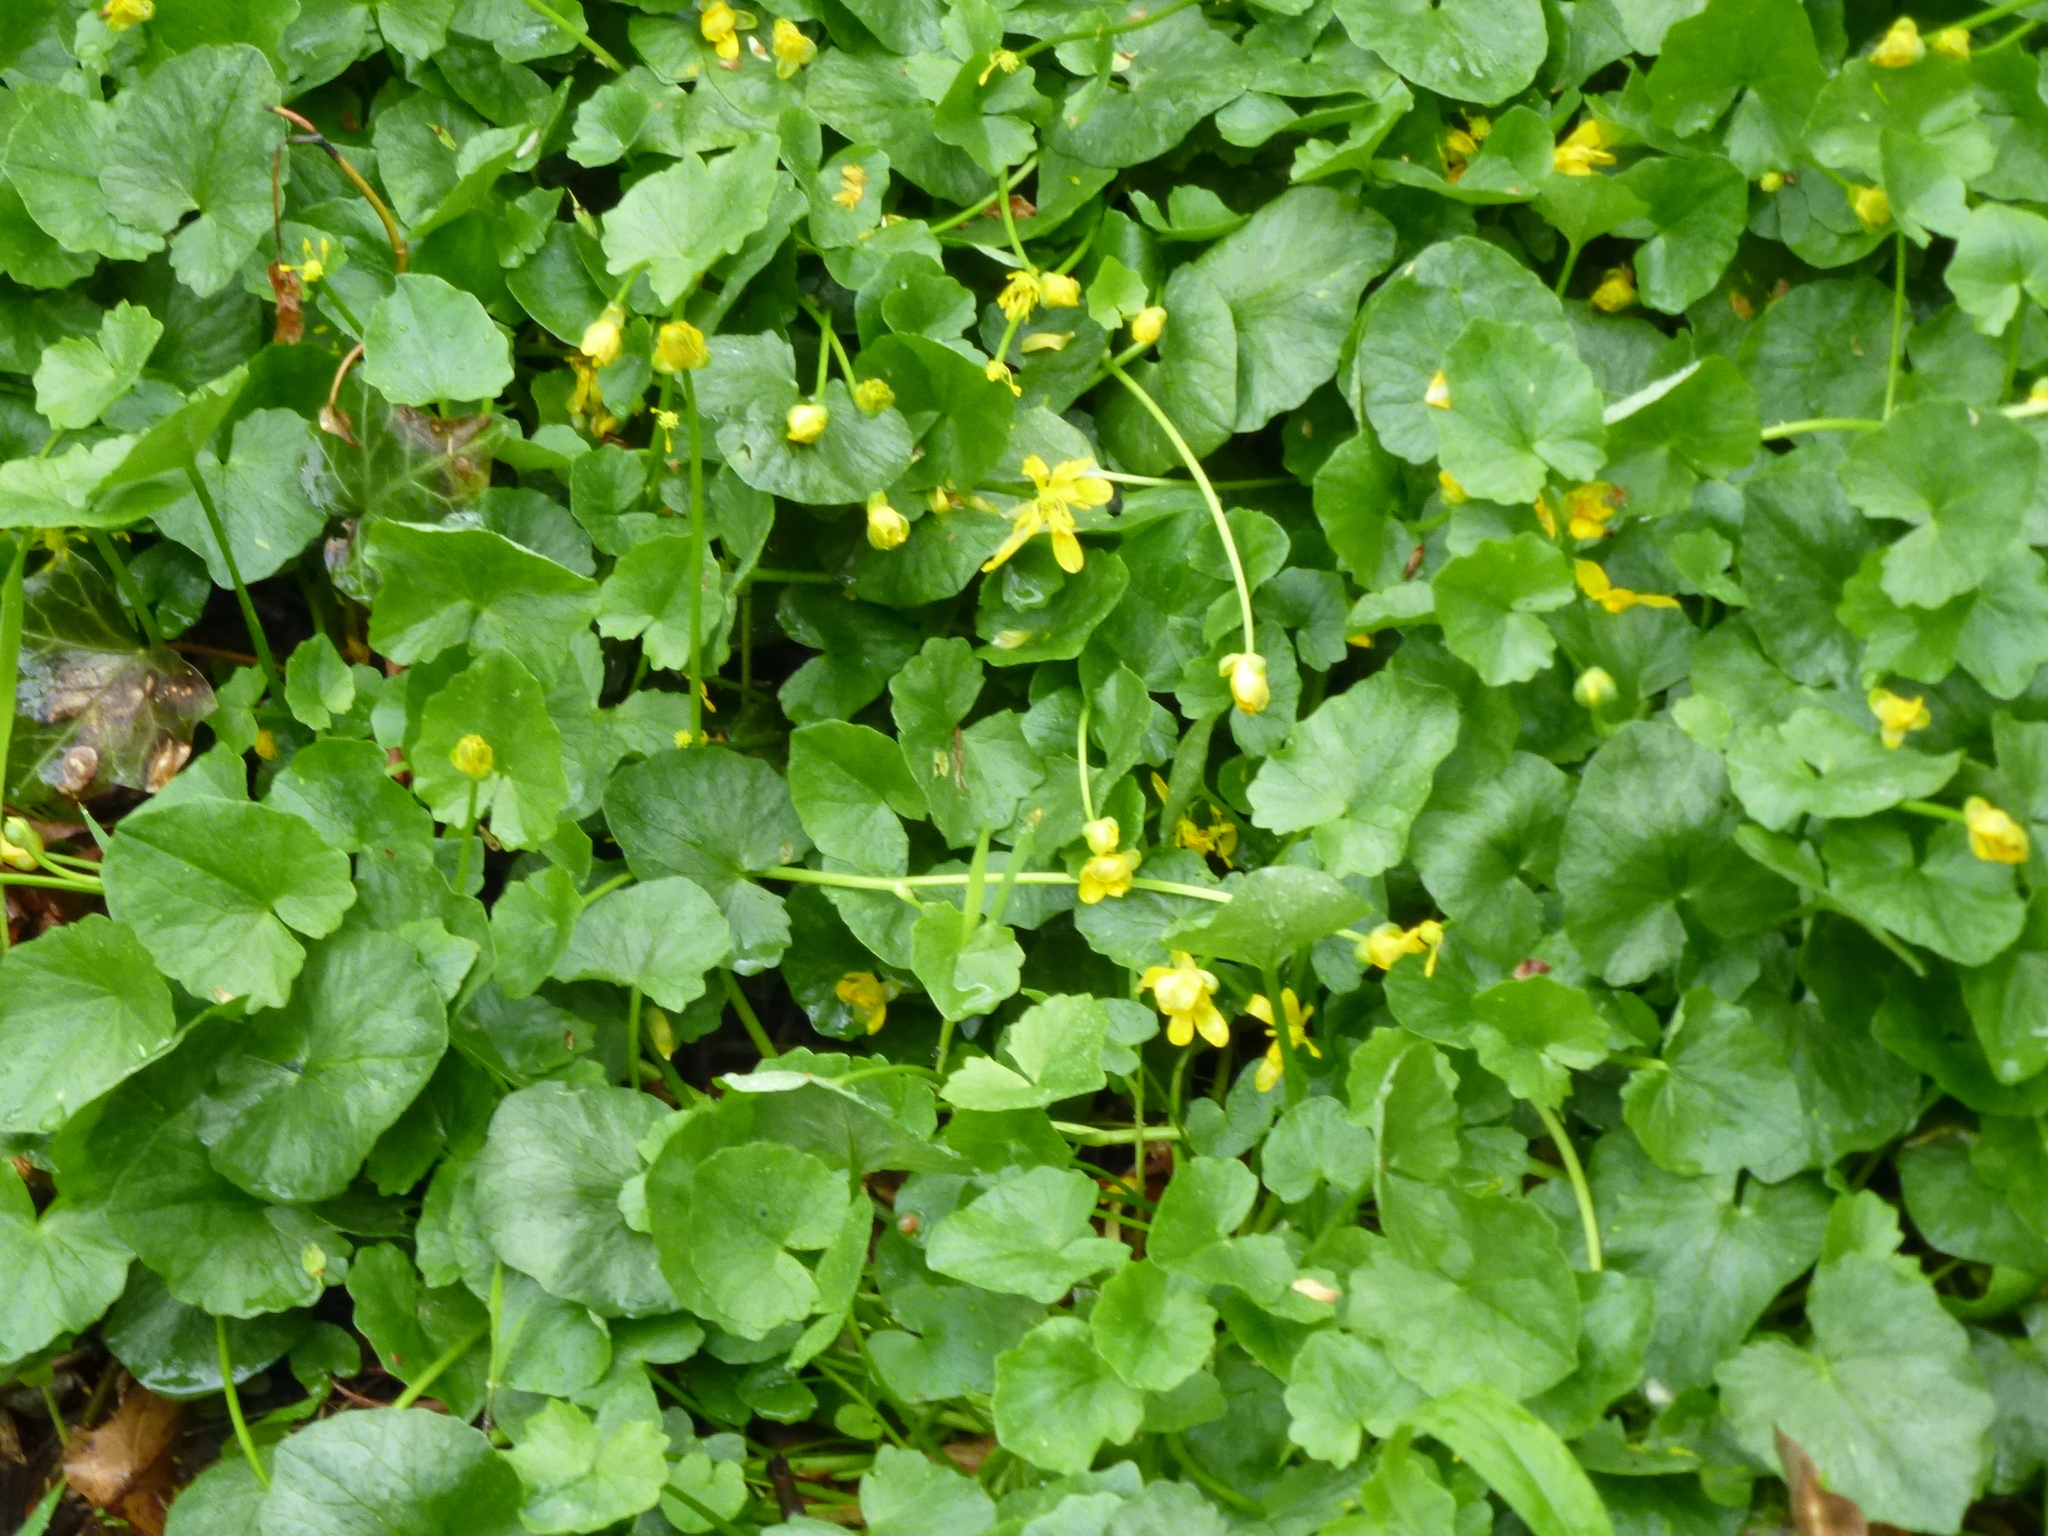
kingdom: Plantae
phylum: Tracheophyta
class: Magnoliopsida
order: Ranunculales
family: Ranunculaceae
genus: Ficaria
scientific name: Ficaria verna
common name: Lesser celandine
